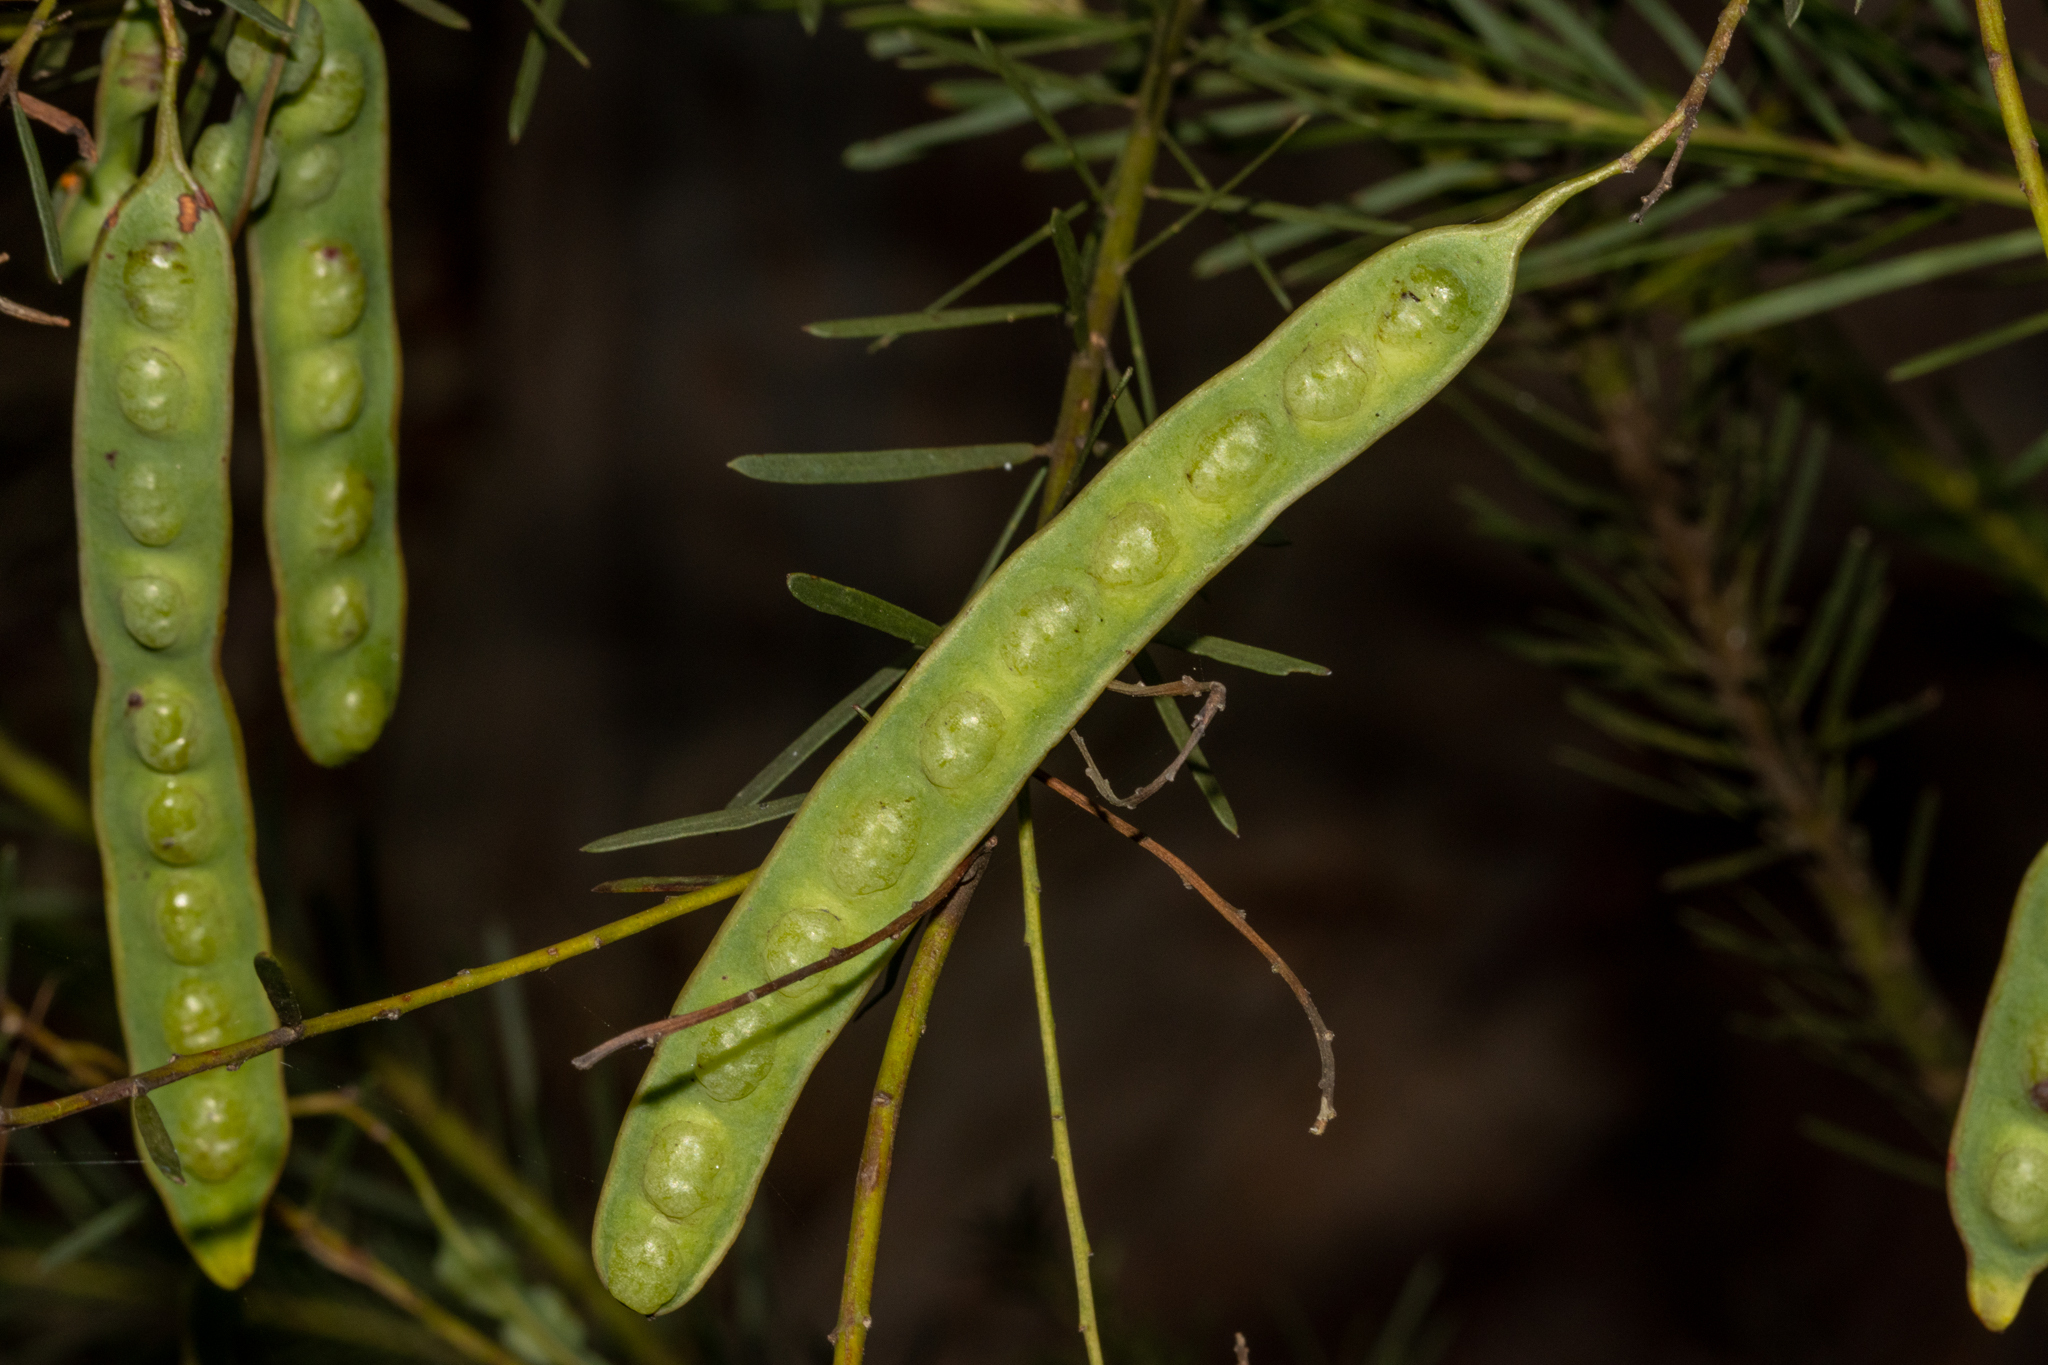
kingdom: Plantae
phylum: Tracheophyta
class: Magnoliopsida
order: Fabales
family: Fabaceae
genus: Acacia
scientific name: Acacia linifolia
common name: White wattle
